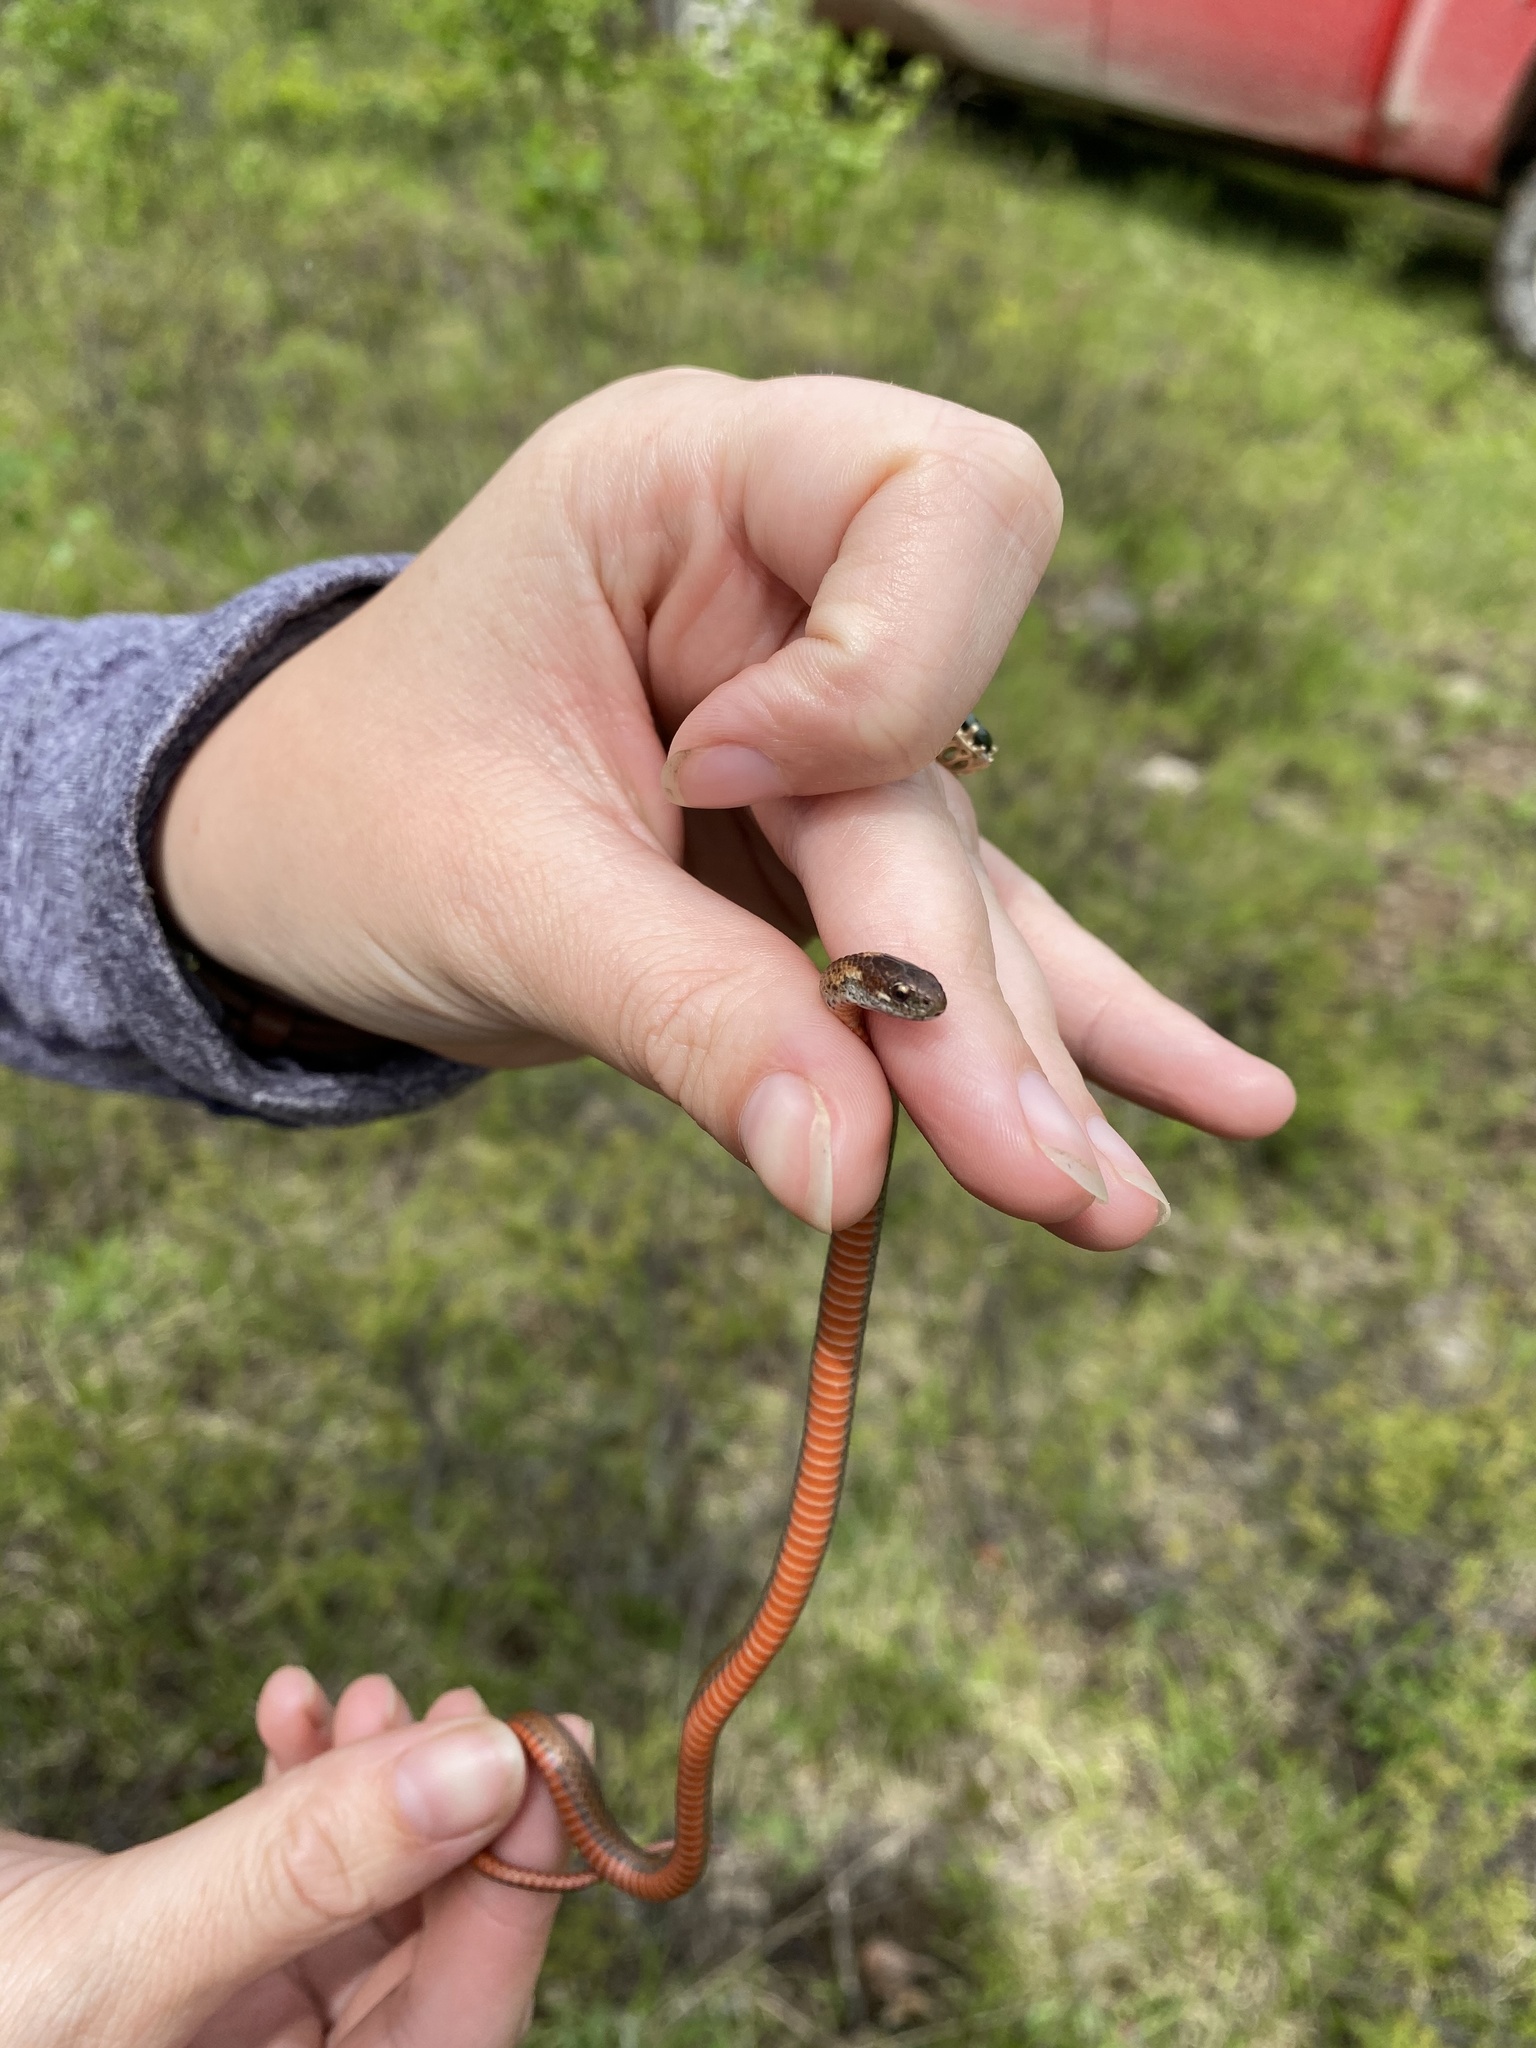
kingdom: Animalia
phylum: Chordata
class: Squamata
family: Colubridae
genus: Storeria
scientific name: Storeria occipitomaculata
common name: Redbelly snake
